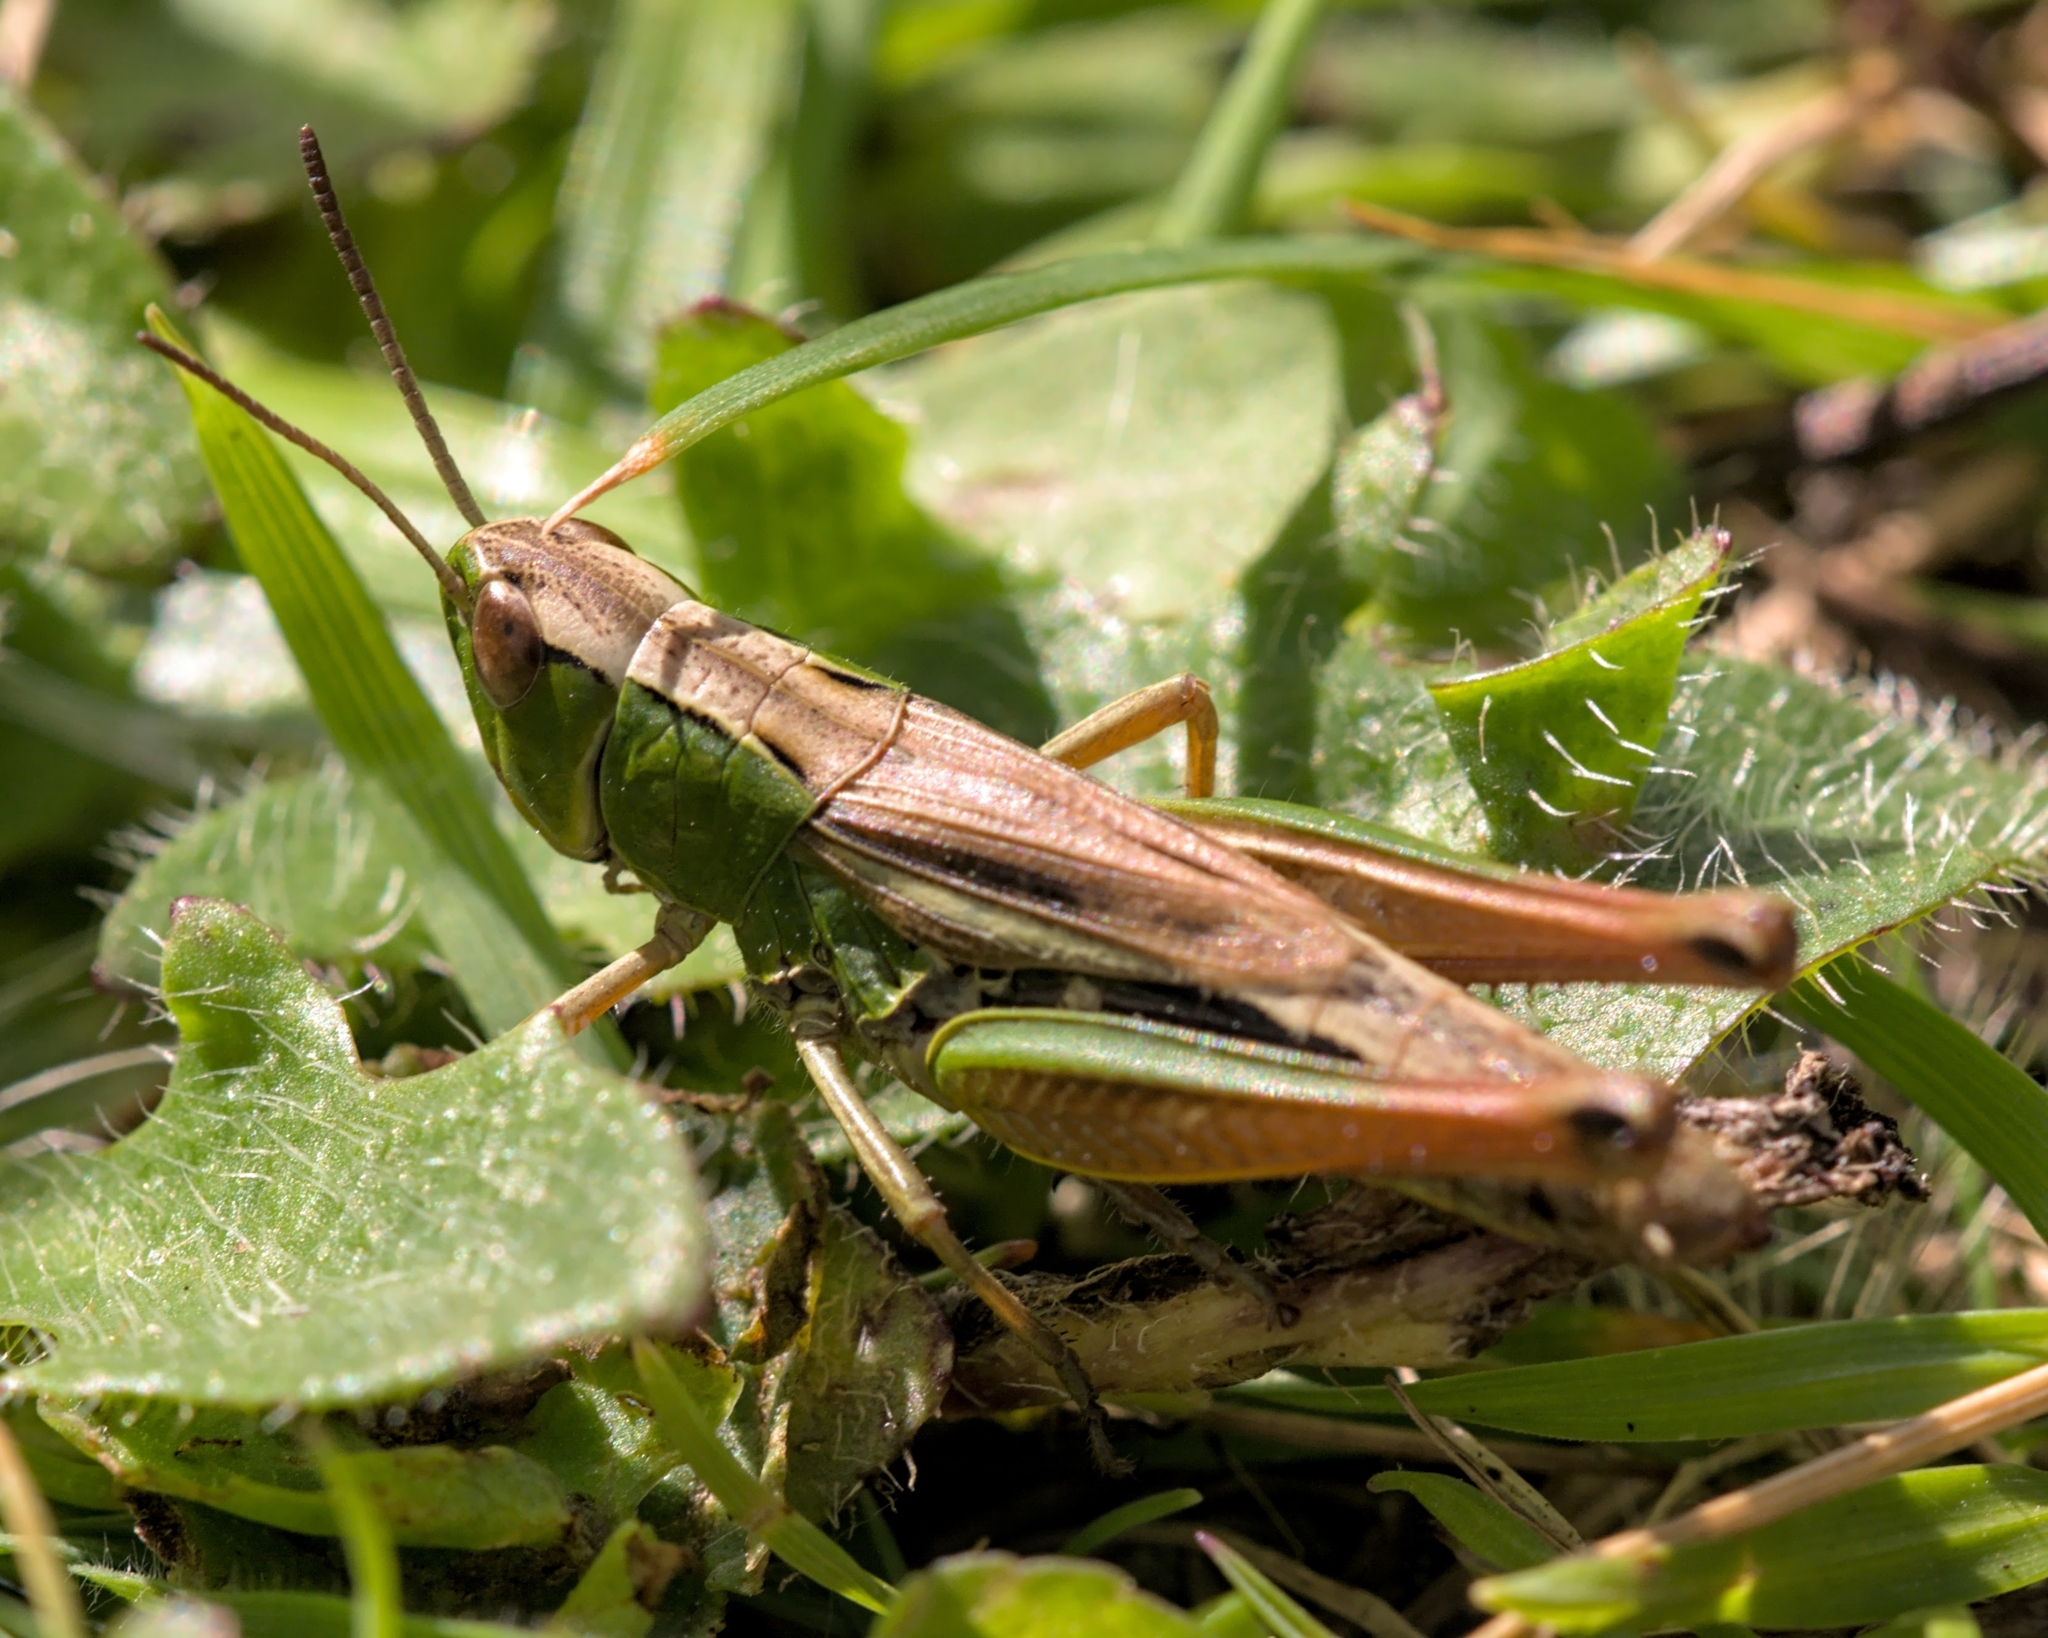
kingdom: Animalia
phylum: Arthropoda
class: Insecta
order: Orthoptera
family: Acrididae
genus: Pseudochorthippus
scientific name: Pseudochorthippus parallelus
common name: Meadow grasshopper
